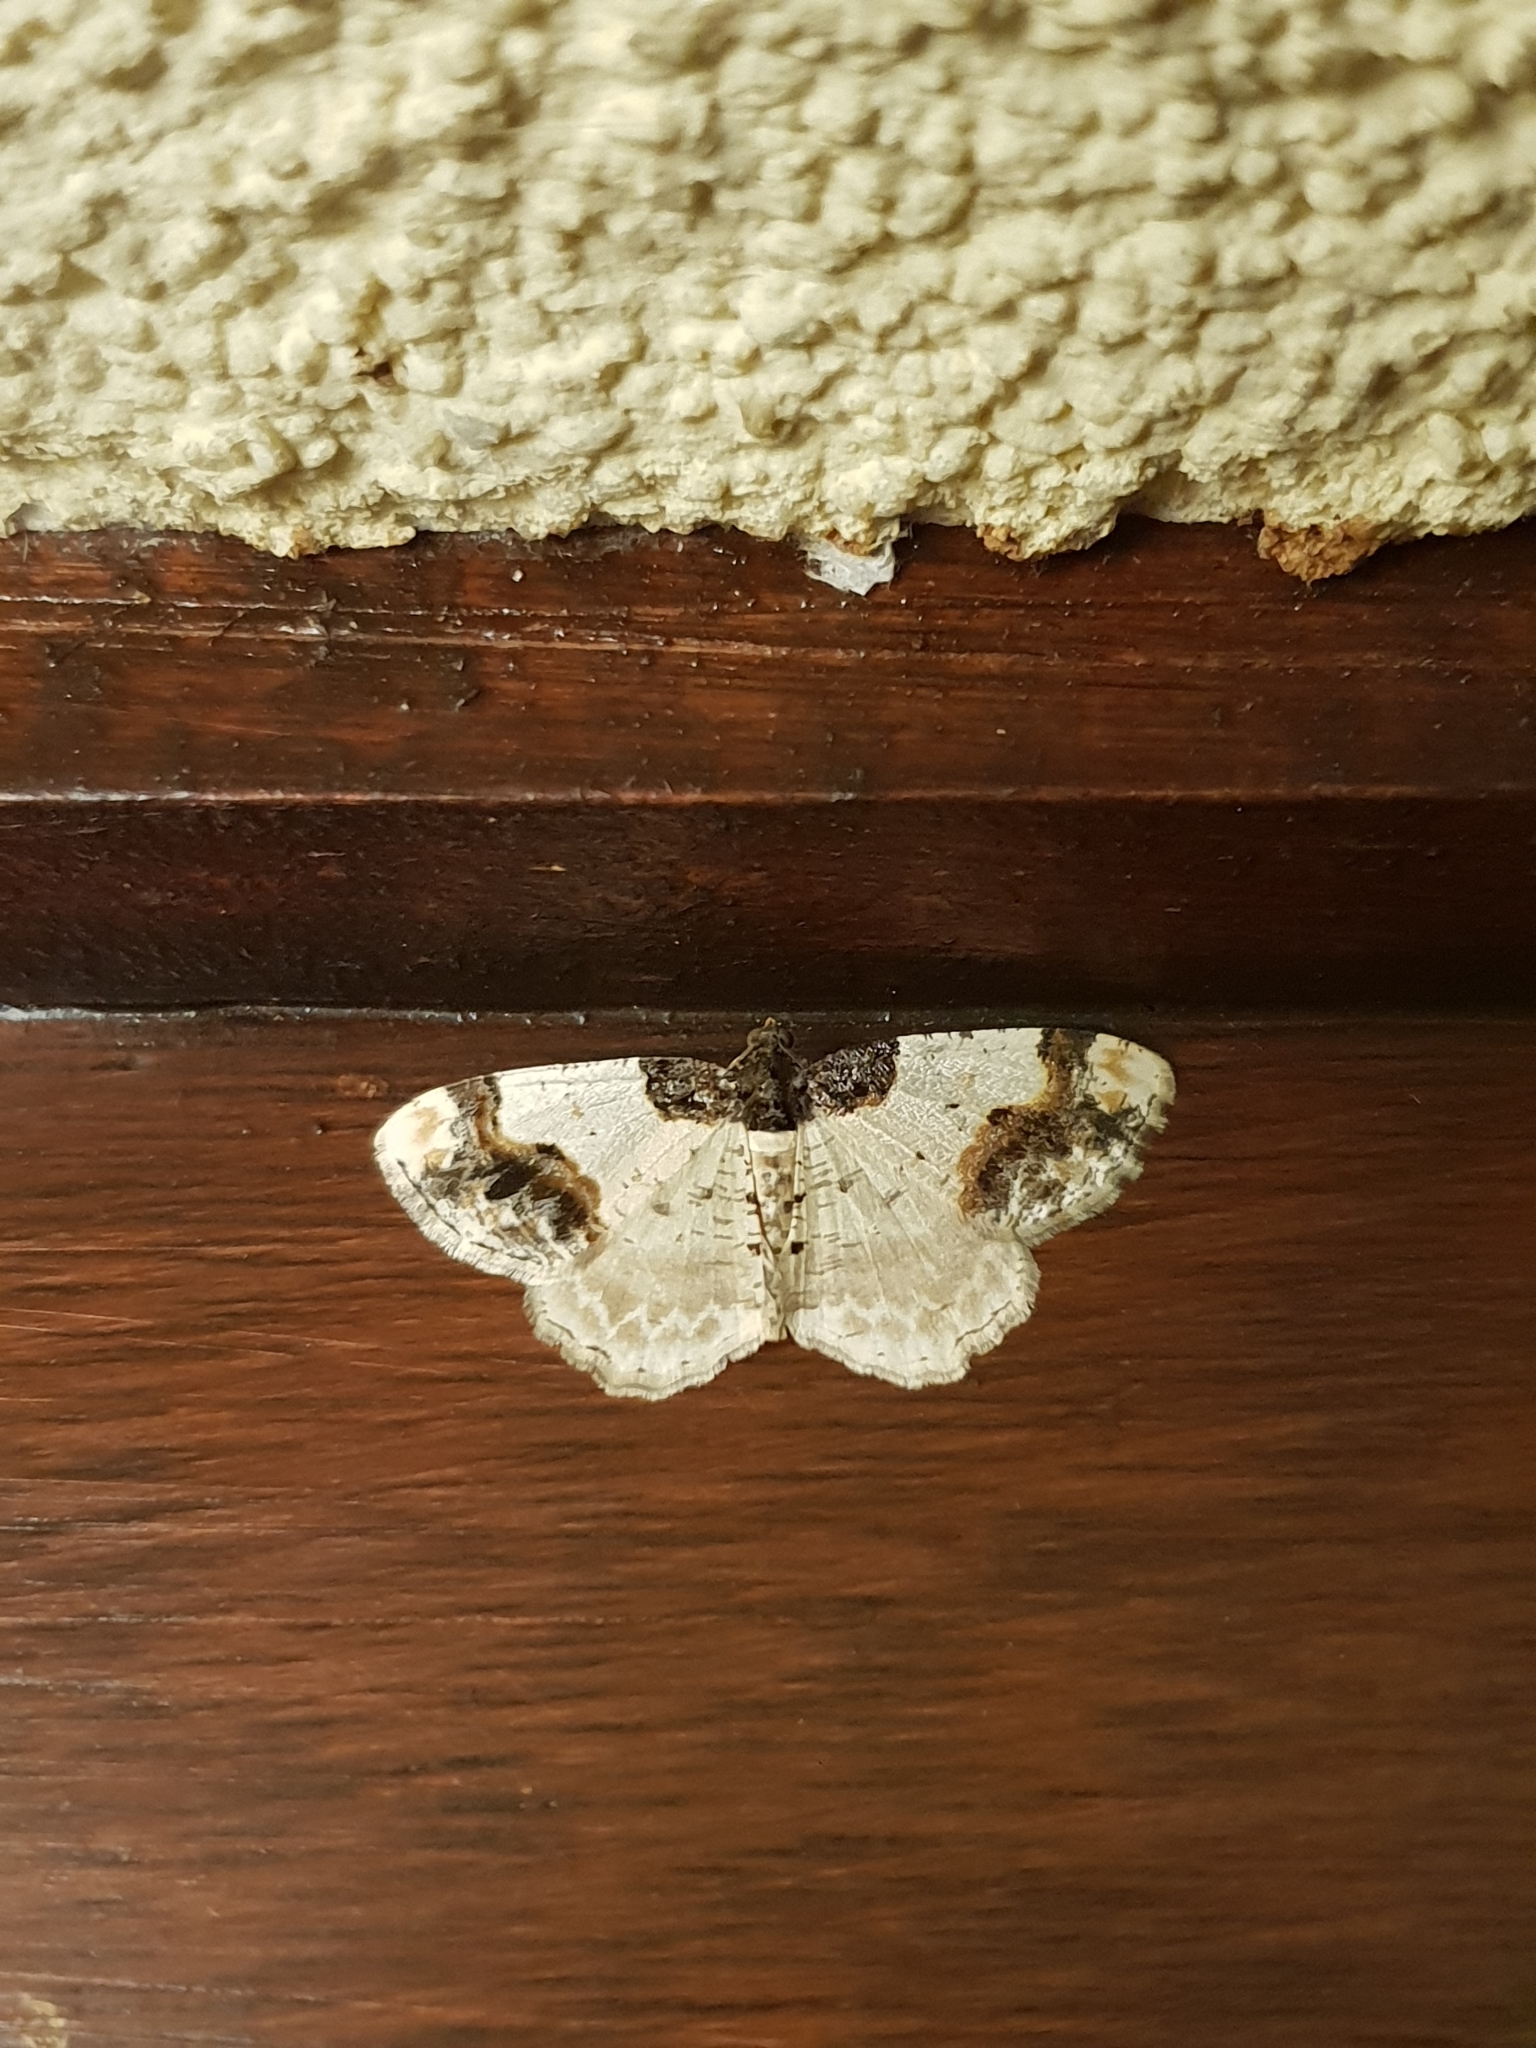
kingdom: Animalia
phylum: Arthropoda
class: Insecta
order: Lepidoptera
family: Geometridae
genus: Ligdia
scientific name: Ligdia adustata
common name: Scorched carpet
